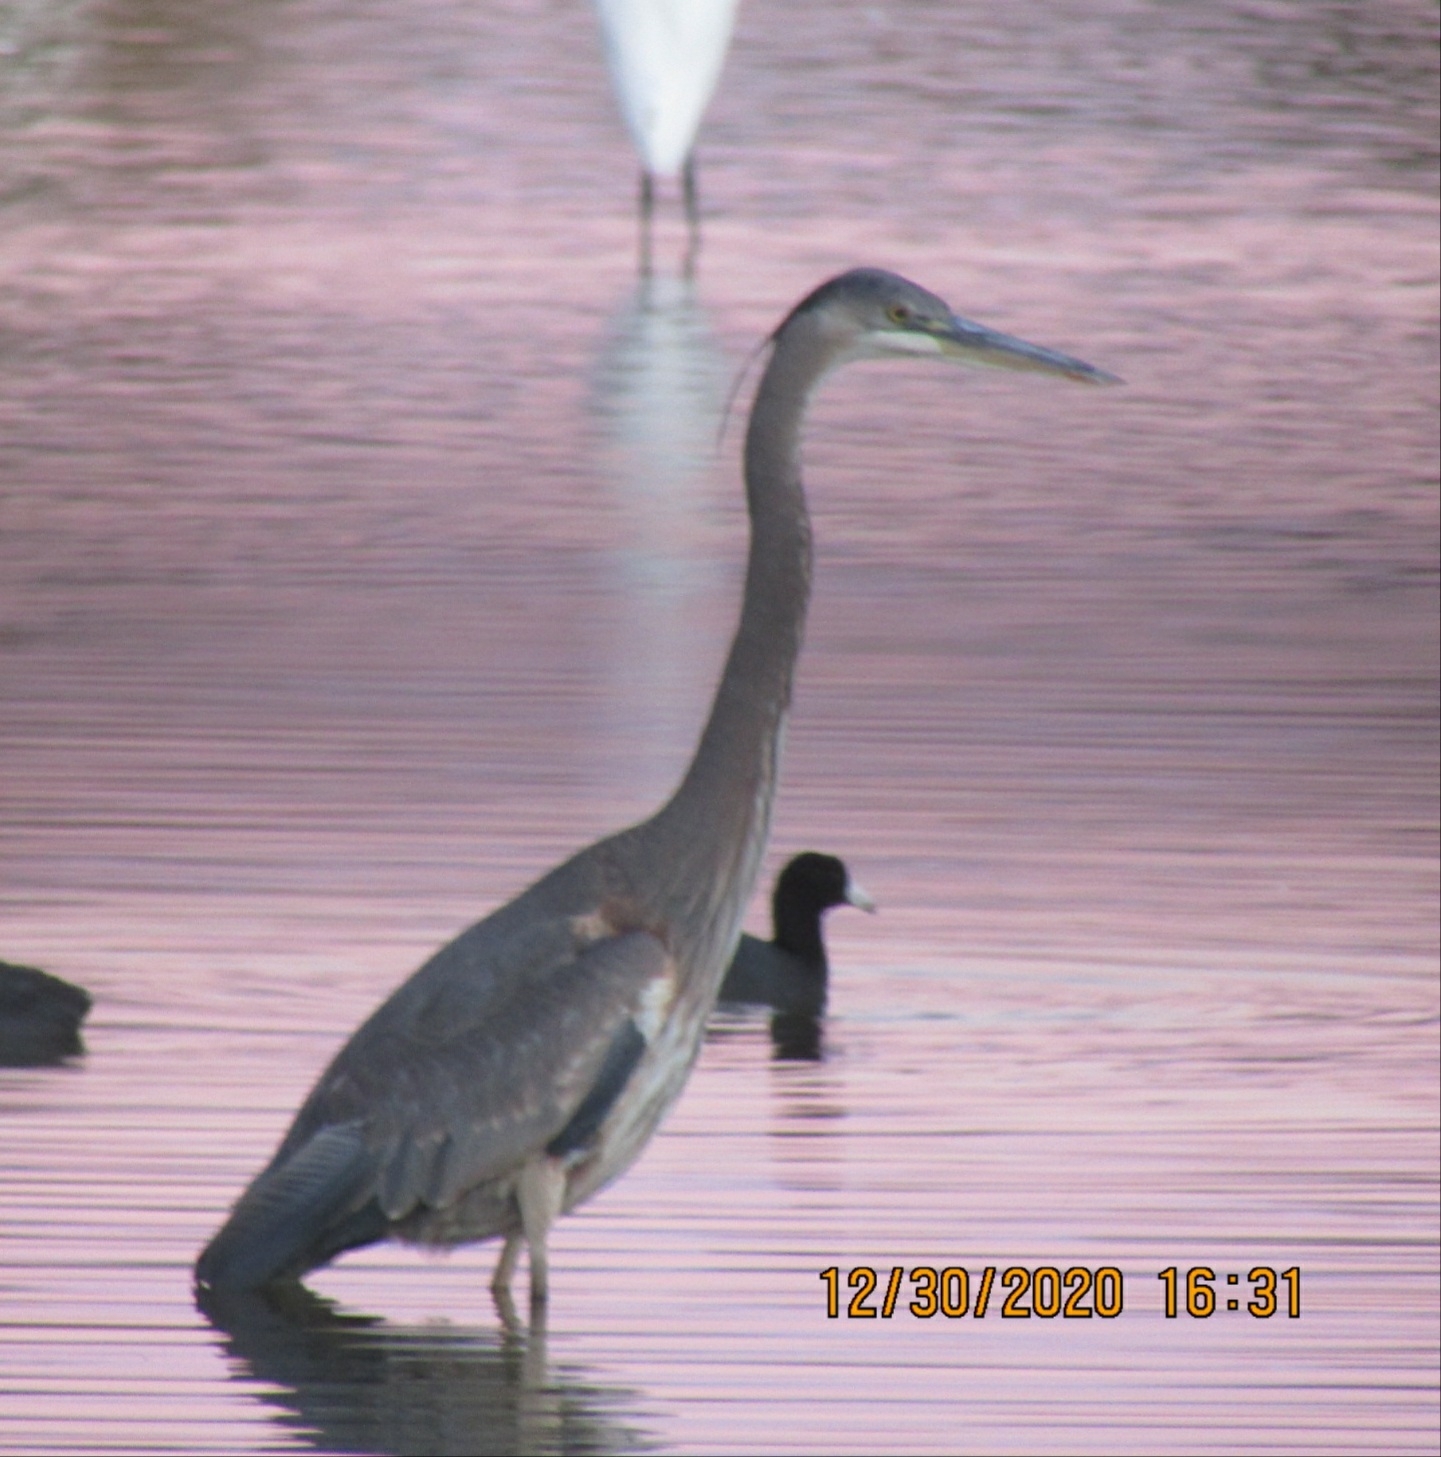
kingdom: Animalia
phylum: Chordata
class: Aves
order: Pelecaniformes
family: Ardeidae
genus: Ardea
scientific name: Ardea herodias
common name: Great blue heron
